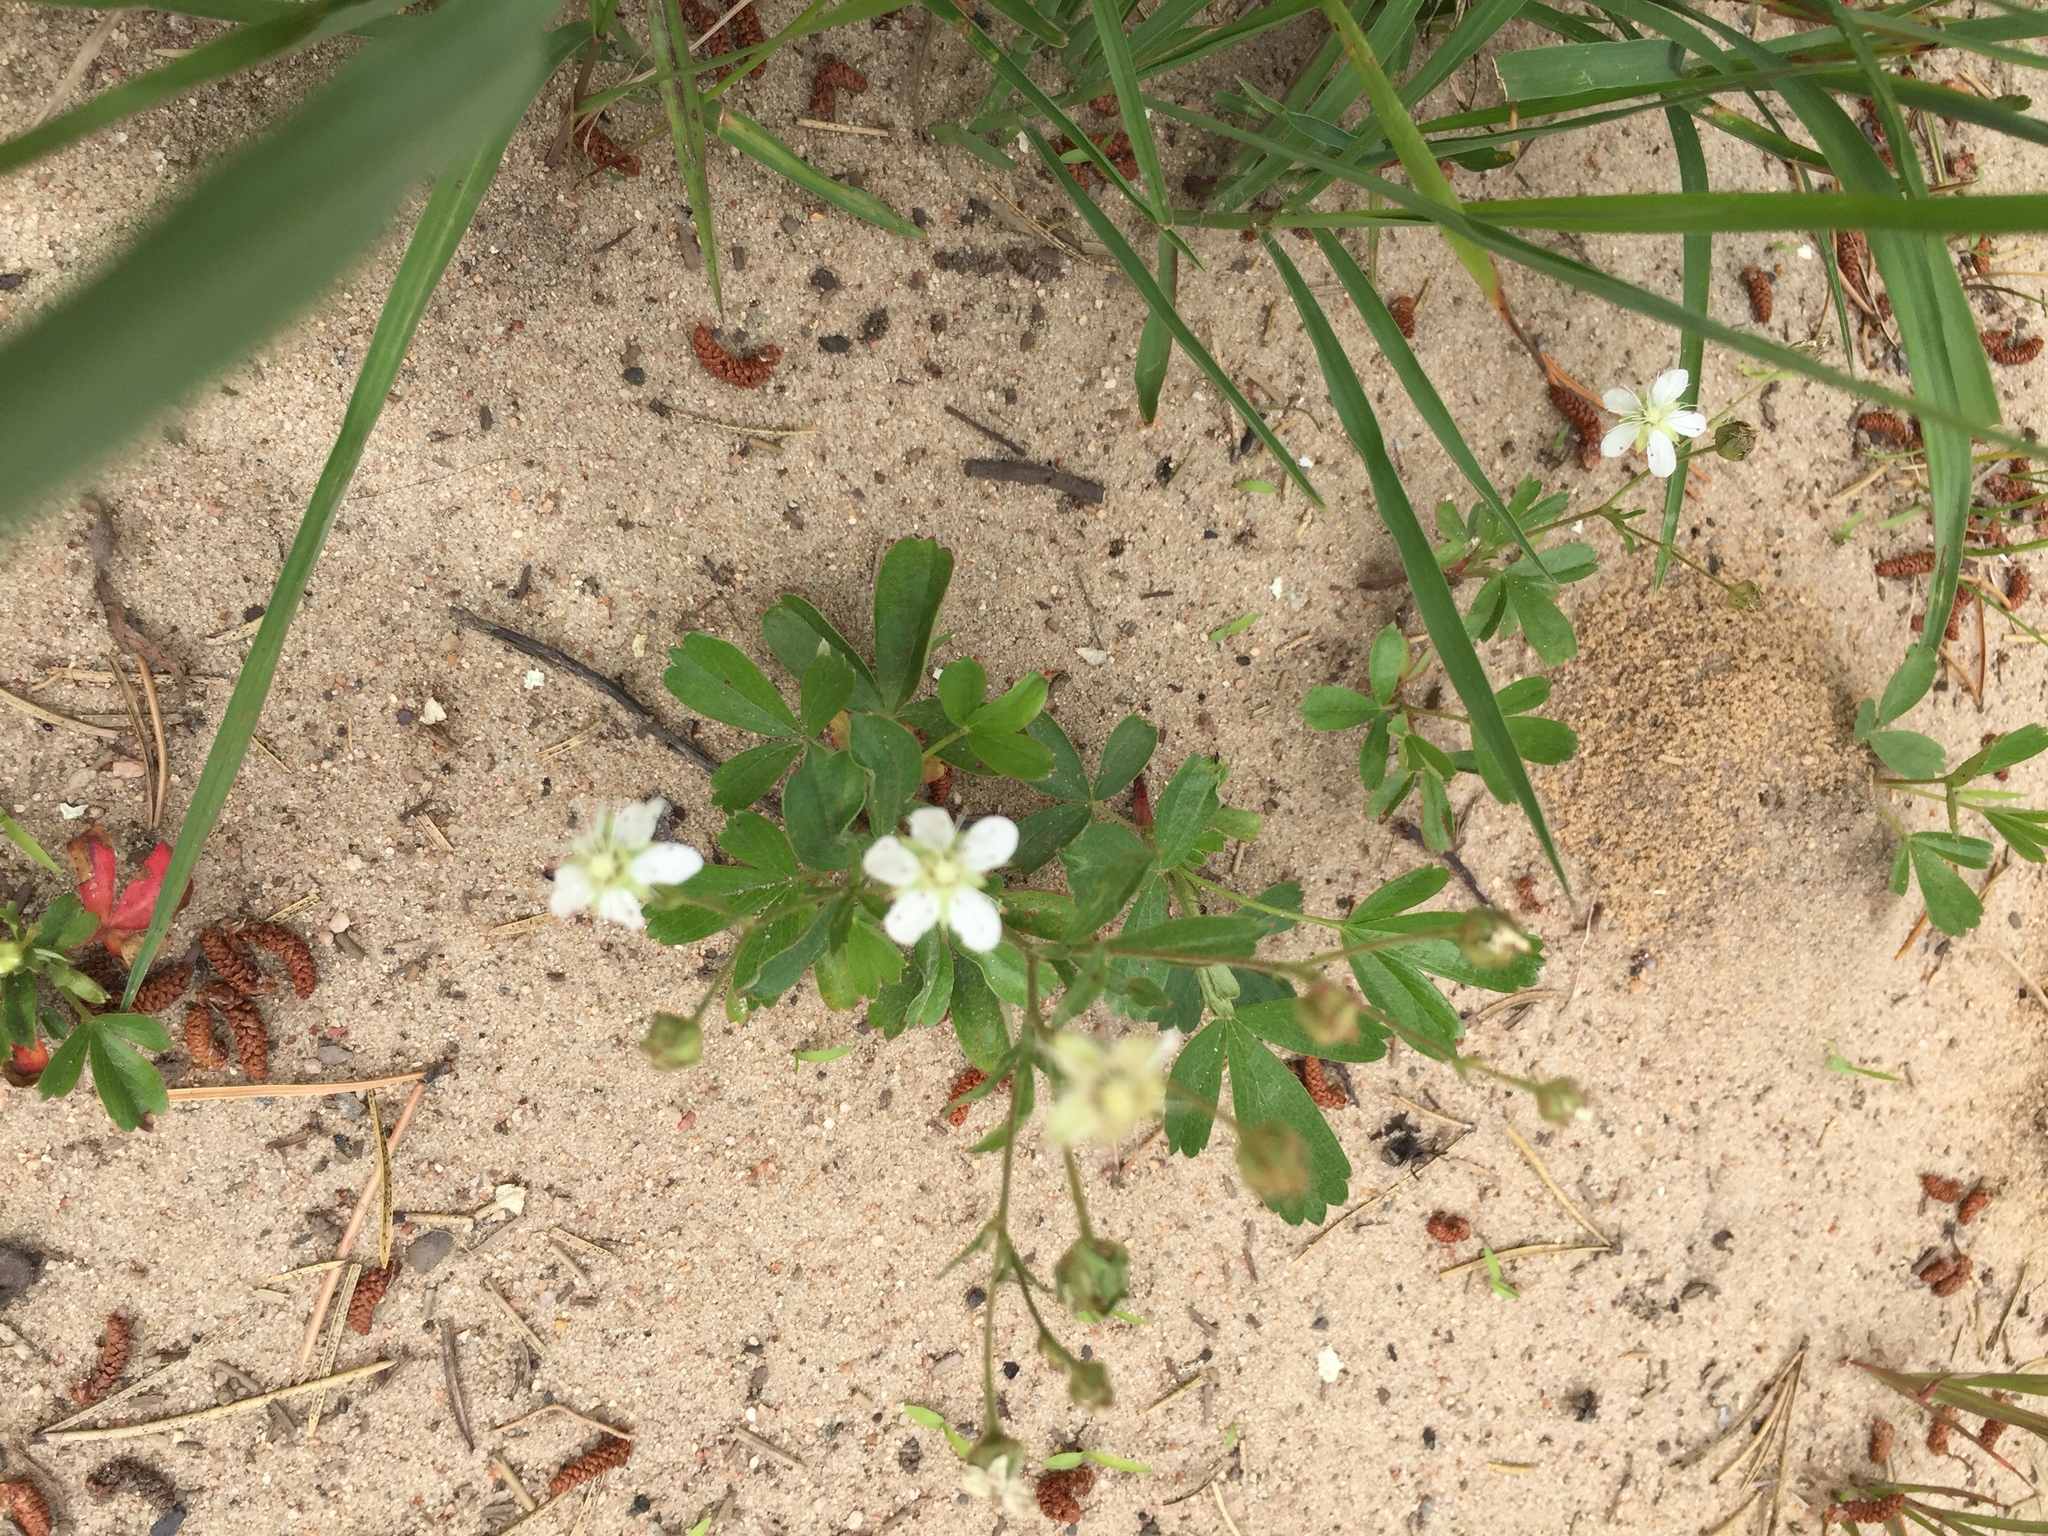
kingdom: Plantae
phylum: Tracheophyta
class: Magnoliopsida
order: Rosales
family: Rosaceae
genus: Sibbaldia
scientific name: Sibbaldia tridentata
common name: Three-toothed cinquefoil
